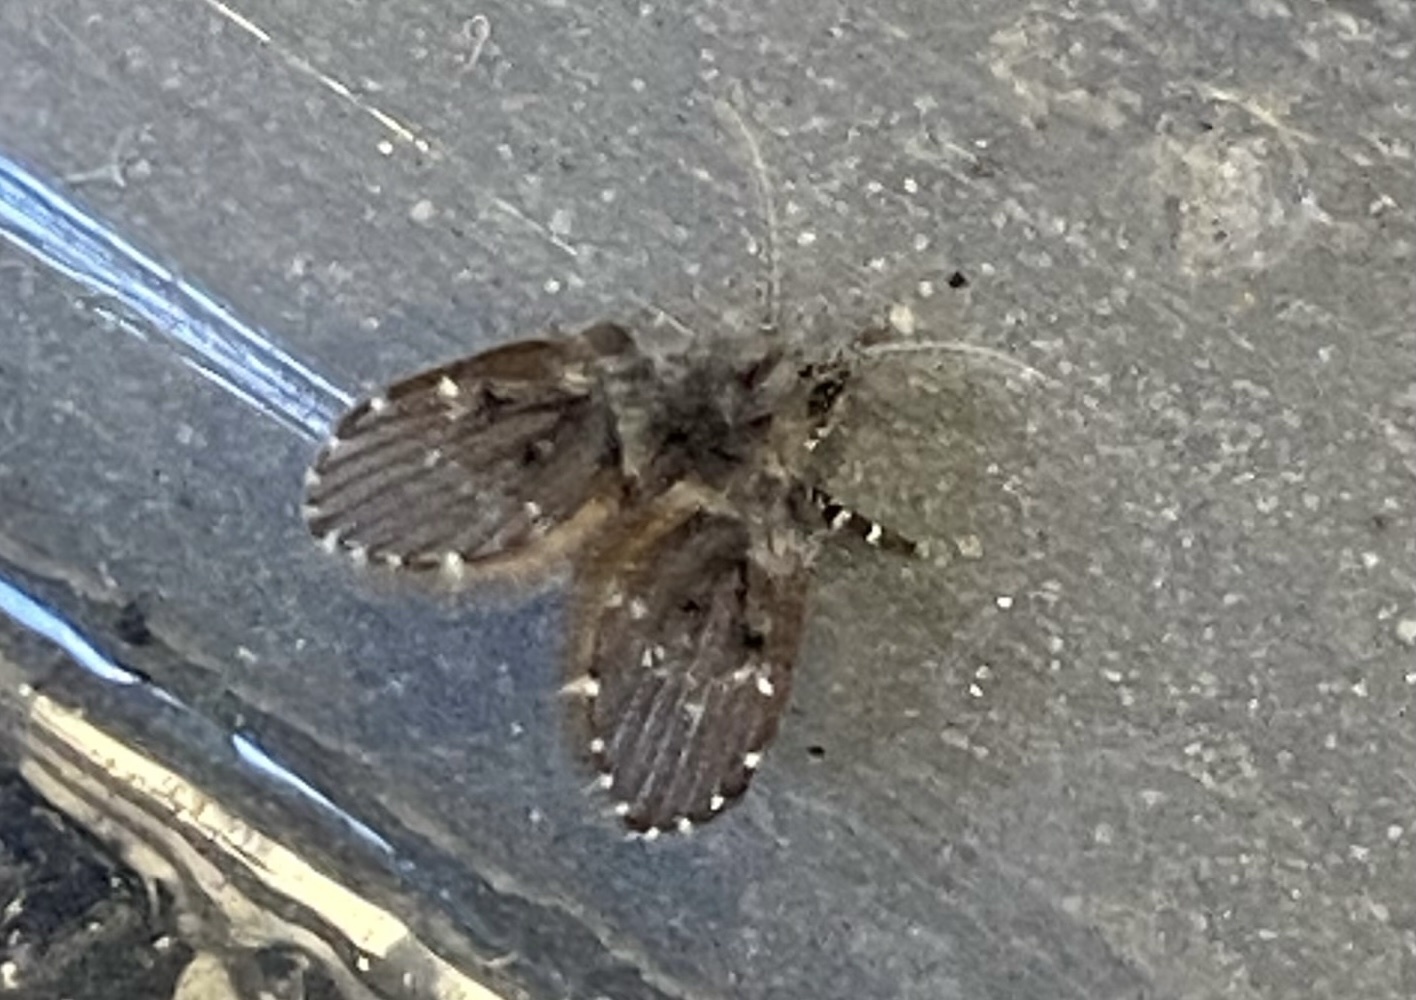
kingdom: Animalia
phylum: Arthropoda
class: Insecta
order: Diptera
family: Psychodidae
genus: Clogmia
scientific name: Clogmia albipunctatus
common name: White-spotted moth fly
